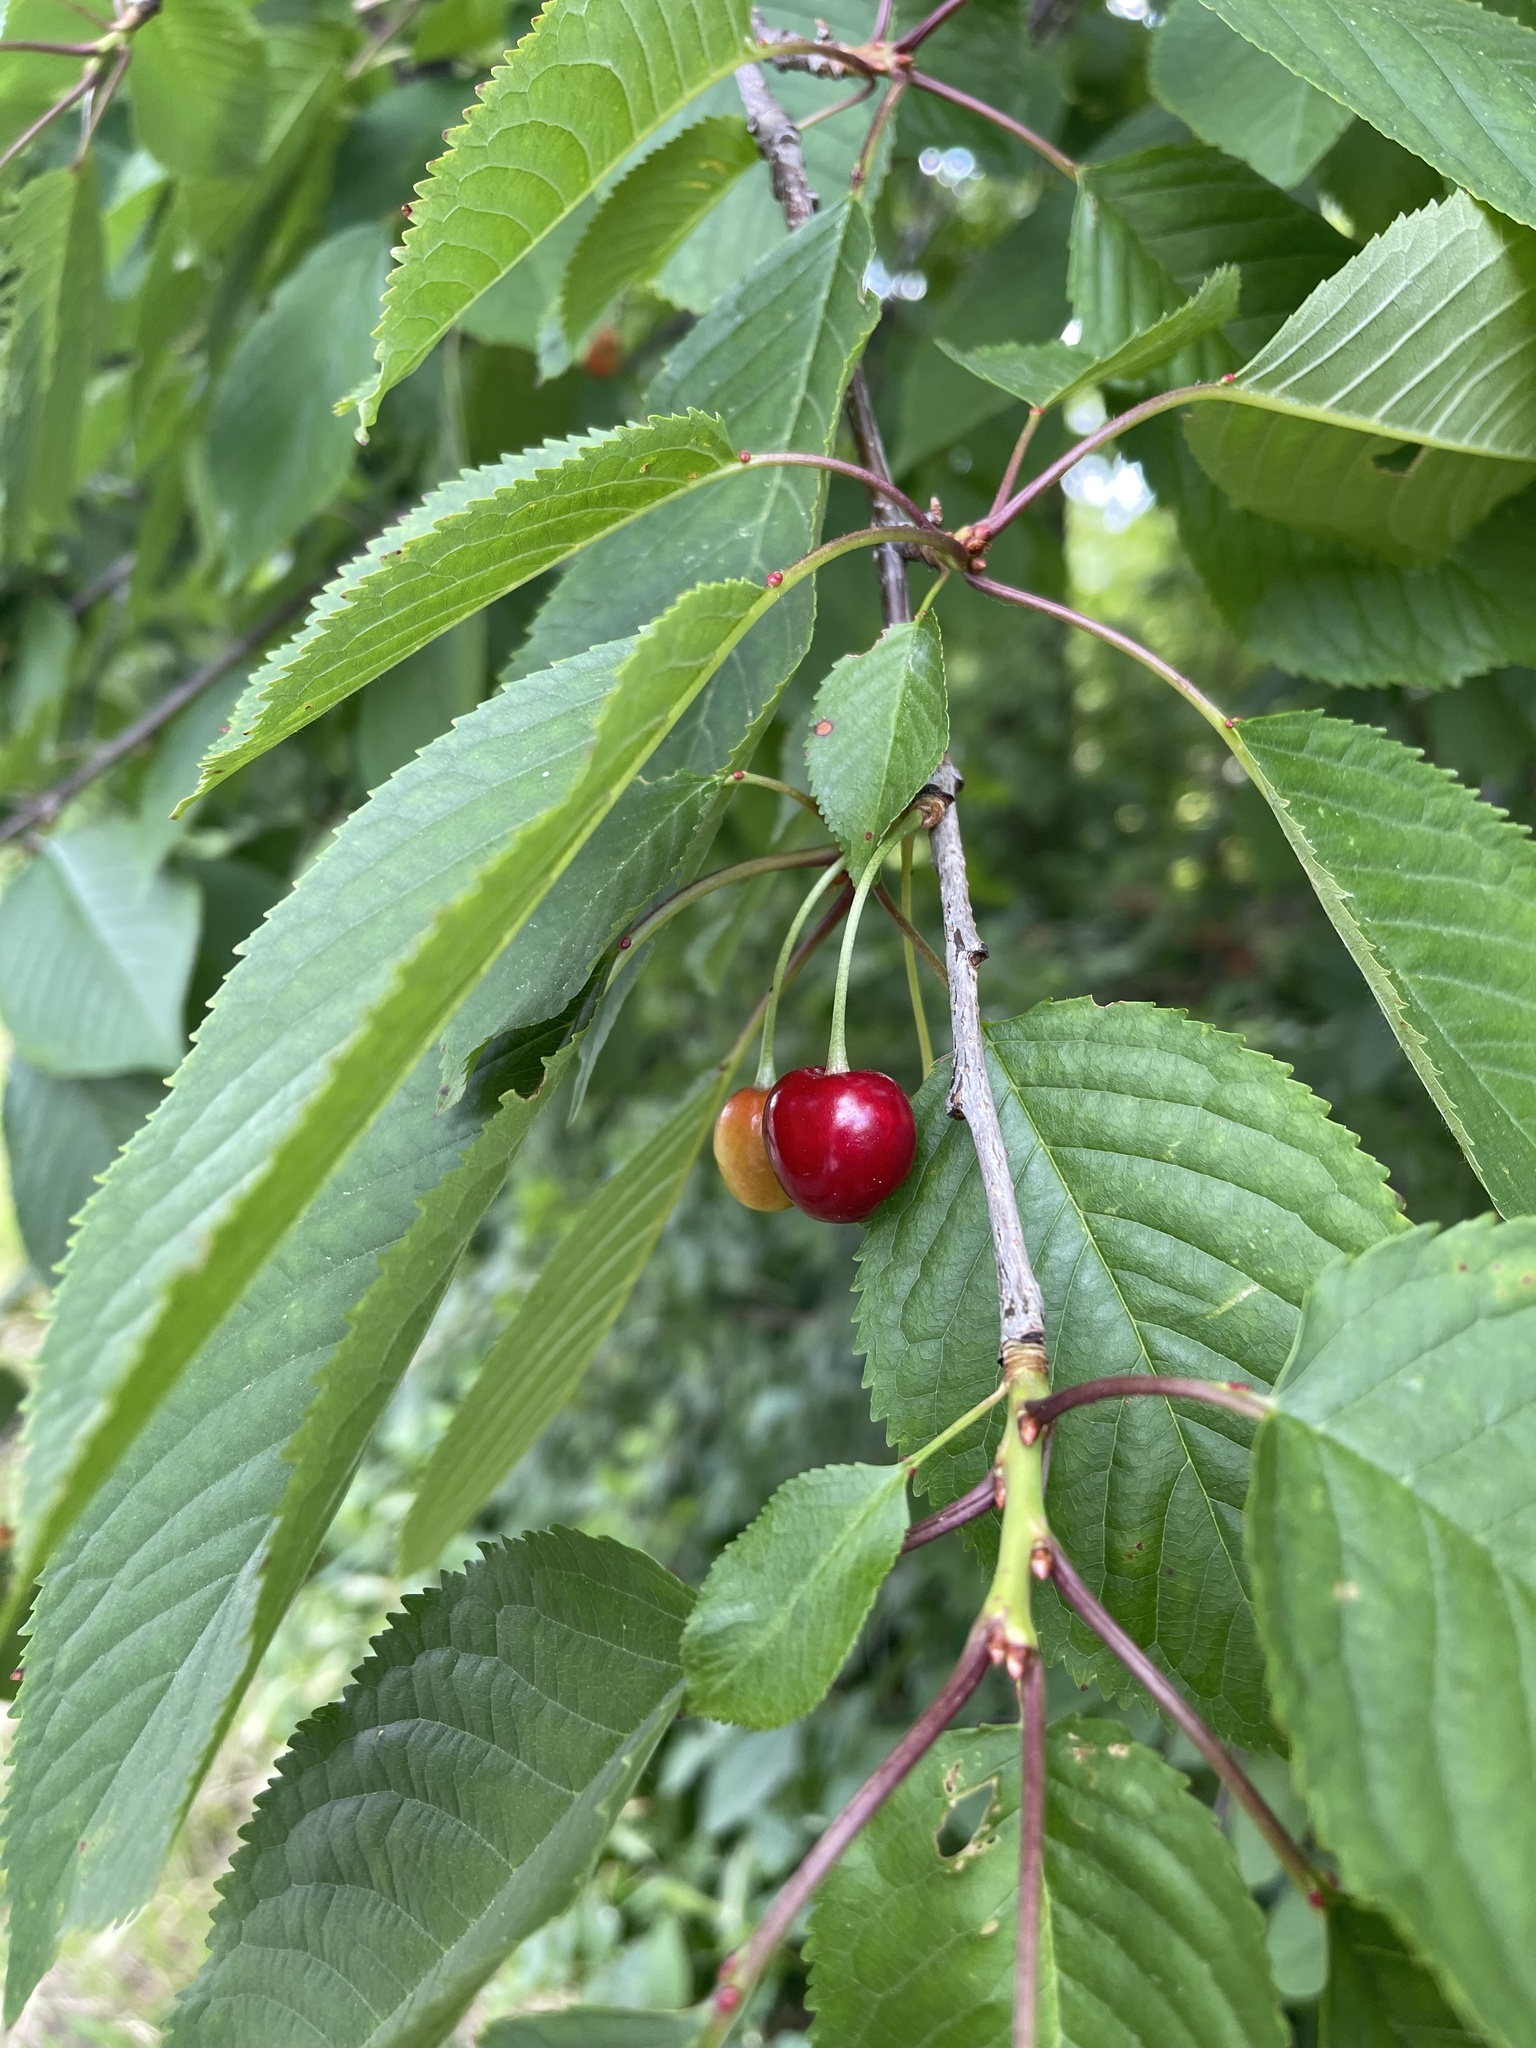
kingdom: Plantae
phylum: Tracheophyta
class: Magnoliopsida
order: Rosales
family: Rosaceae
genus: Prunus
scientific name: Prunus avium
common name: Sweet cherry
